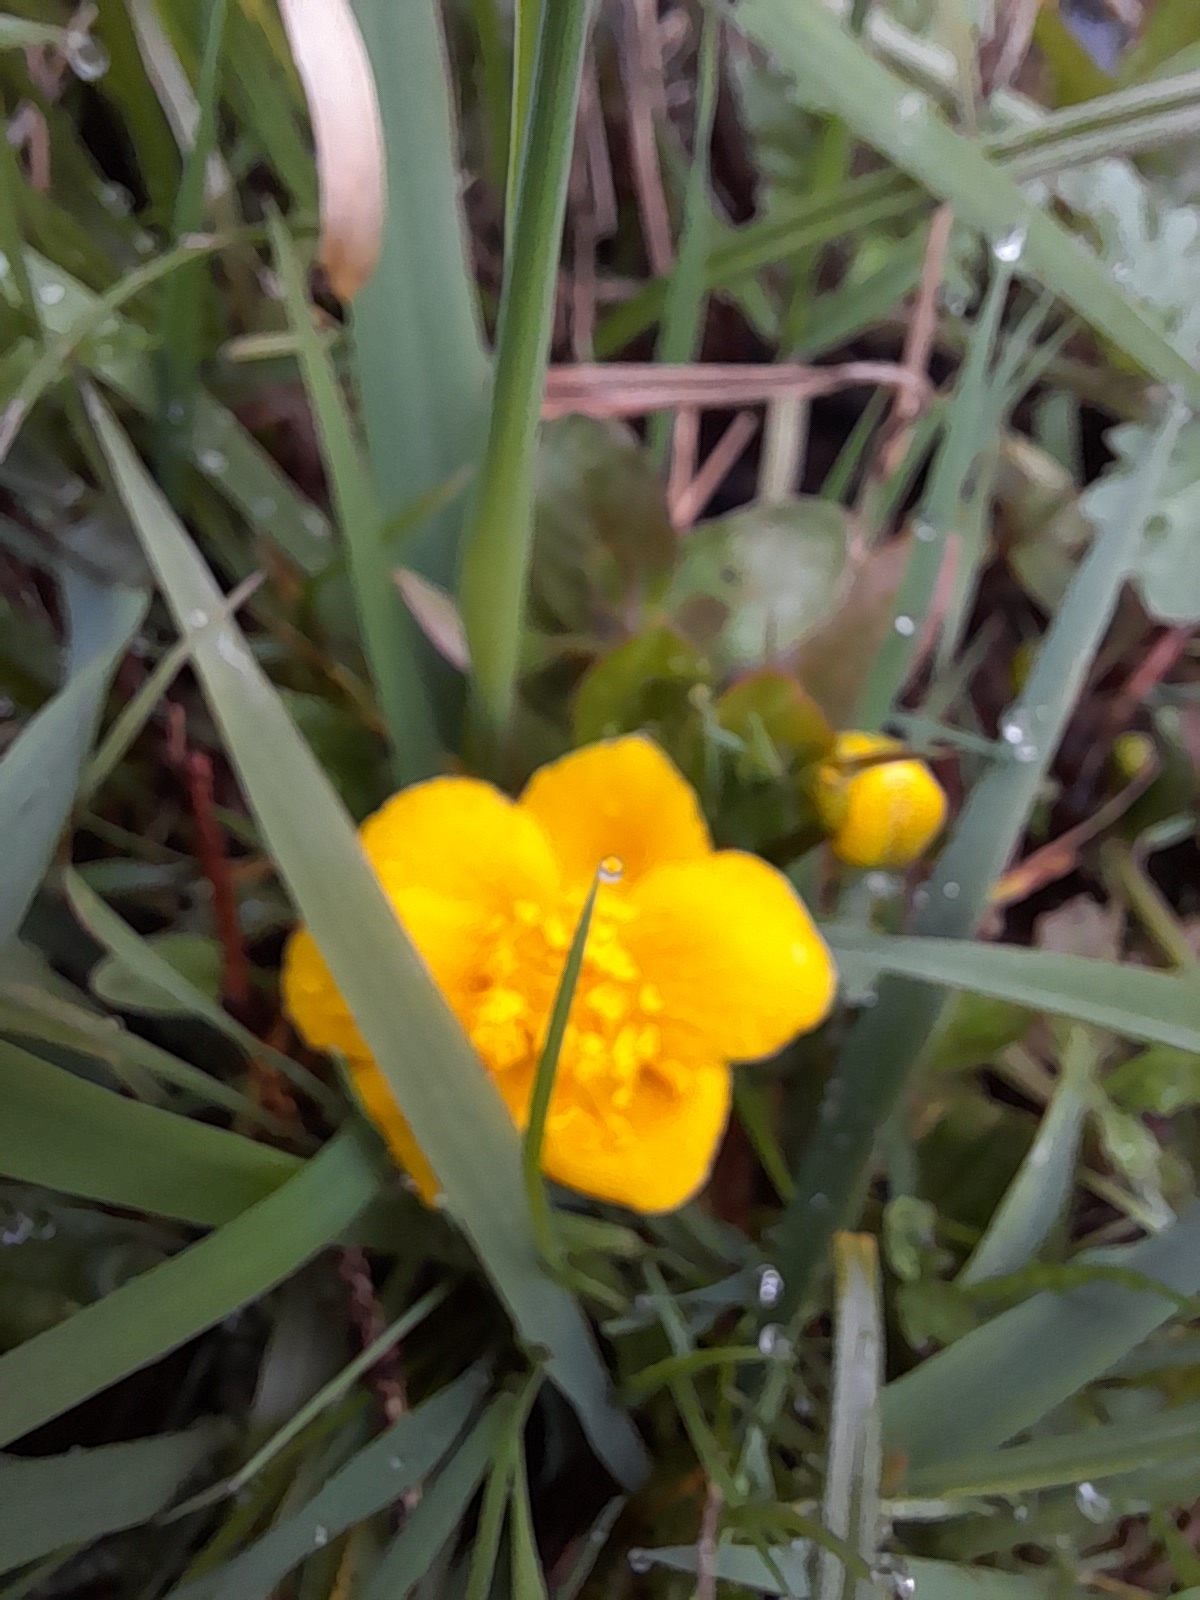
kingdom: Plantae
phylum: Tracheophyta
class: Magnoliopsida
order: Ranunculales
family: Ranunculaceae
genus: Caltha
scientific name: Caltha palustris
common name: Marsh marigold
